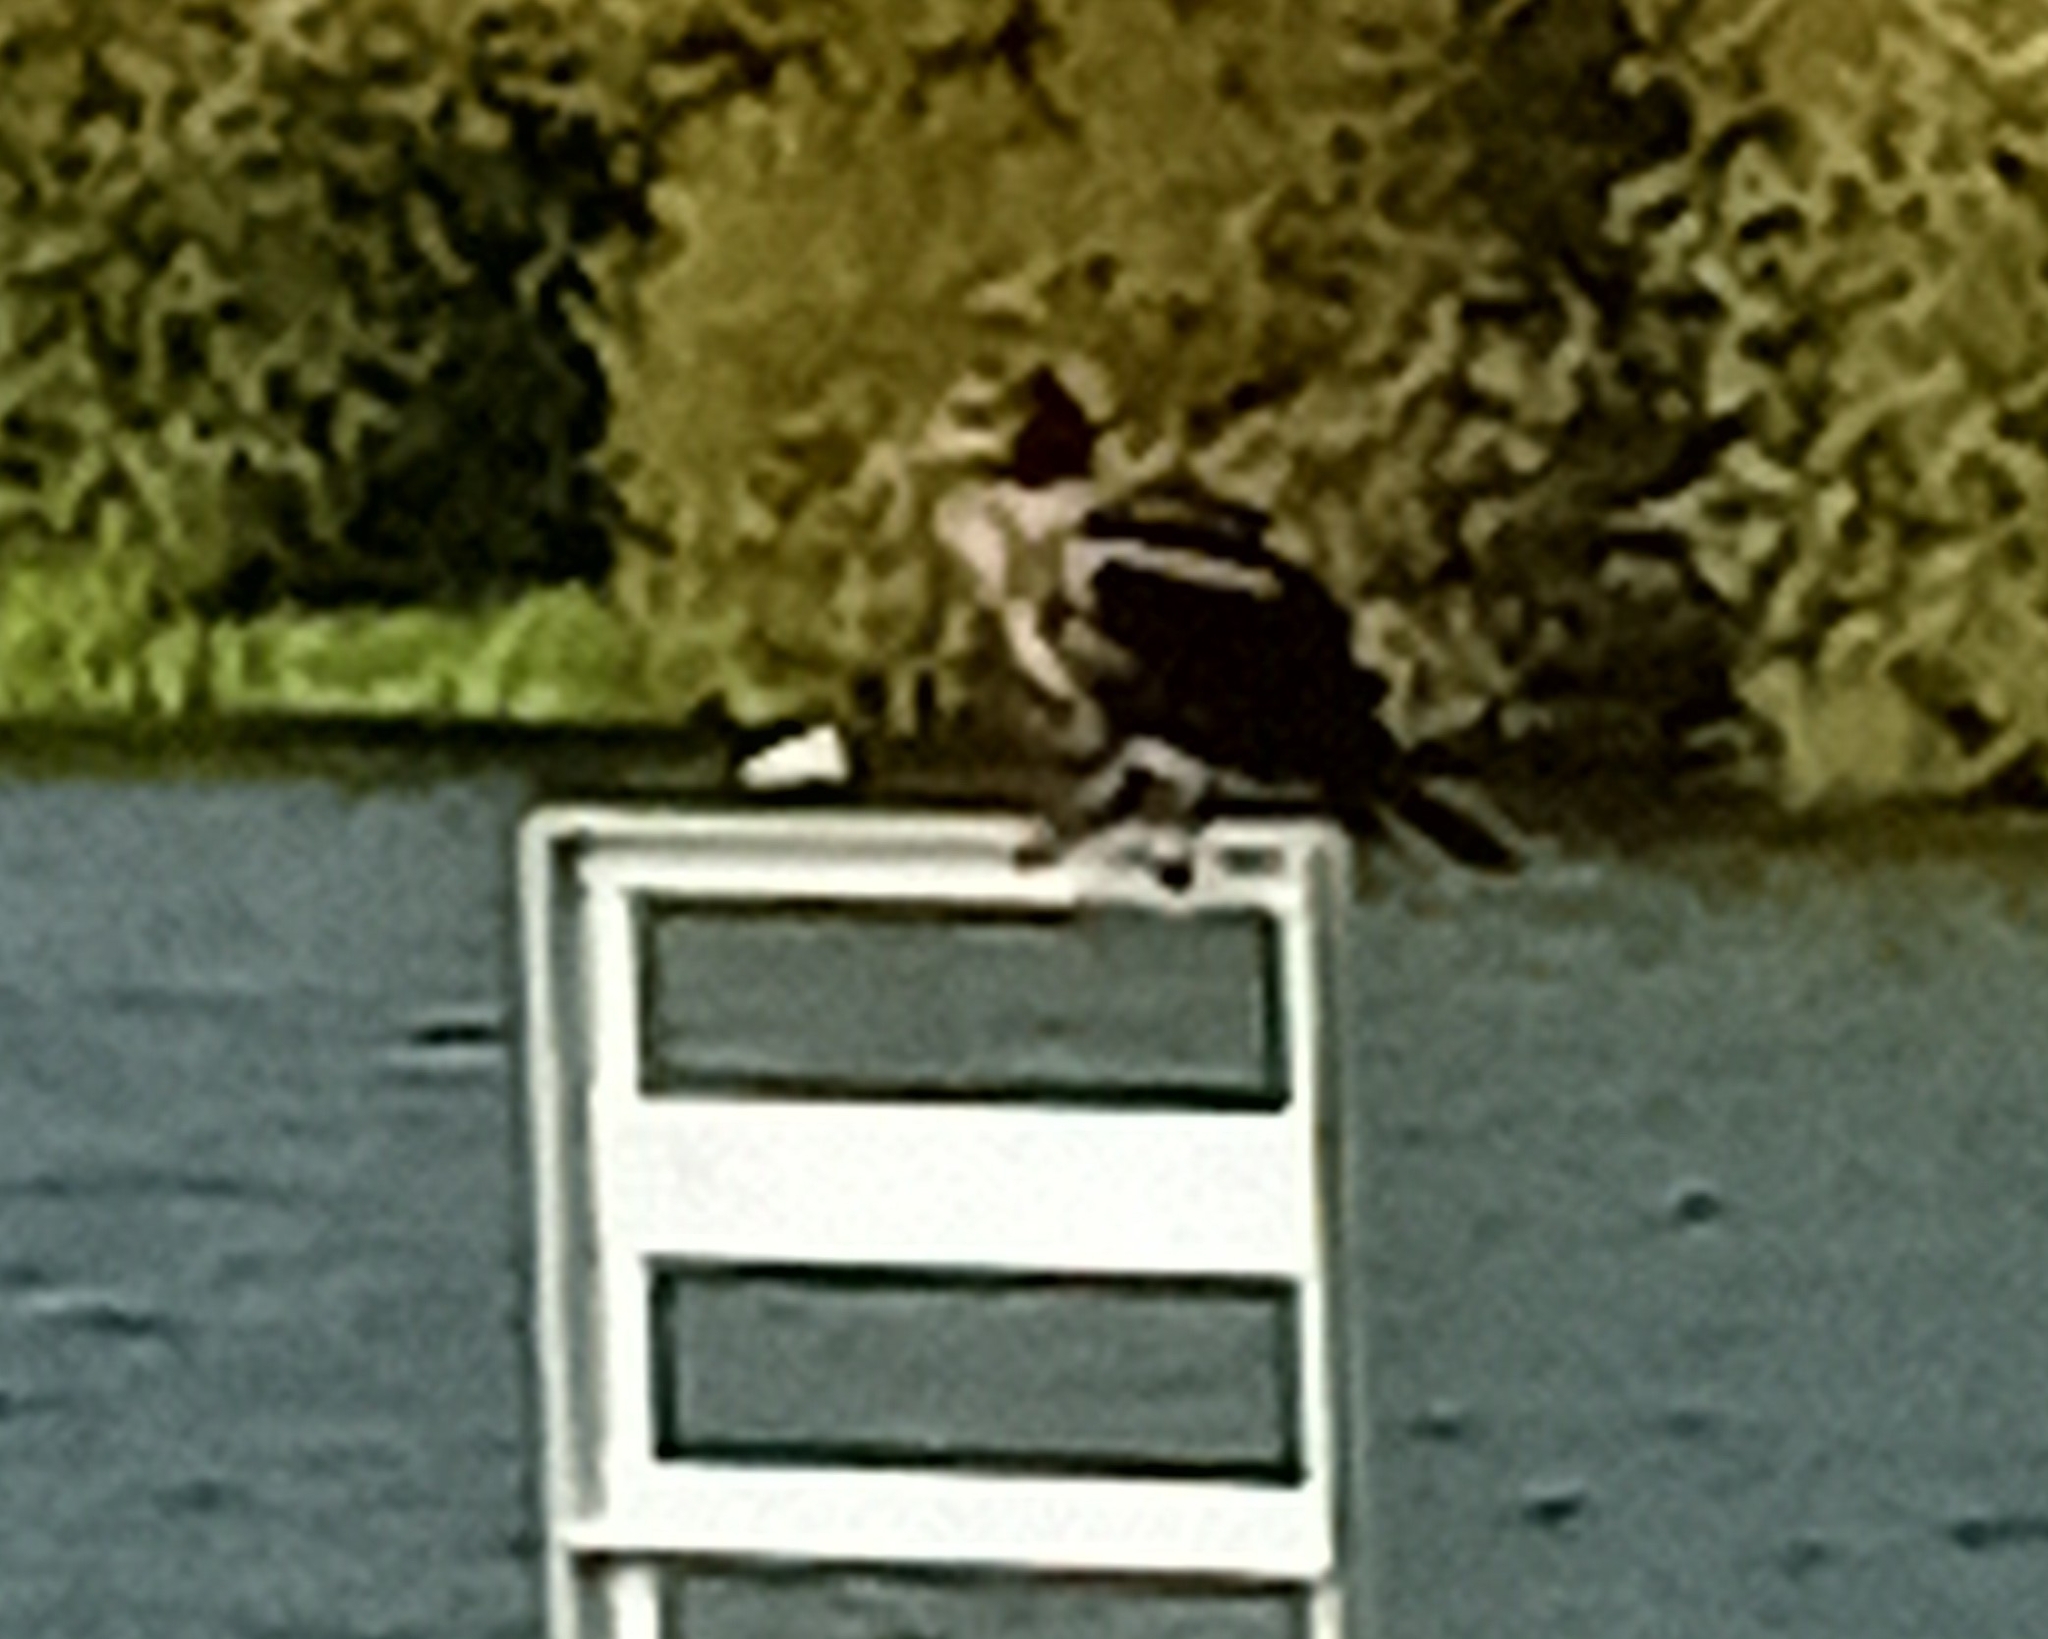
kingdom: Animalia
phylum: Chordata
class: Aves
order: Suliformes
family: Phalacrocoracidae
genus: Phalacrocorax
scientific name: Phalacrocorax carbo
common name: Great cormorant
